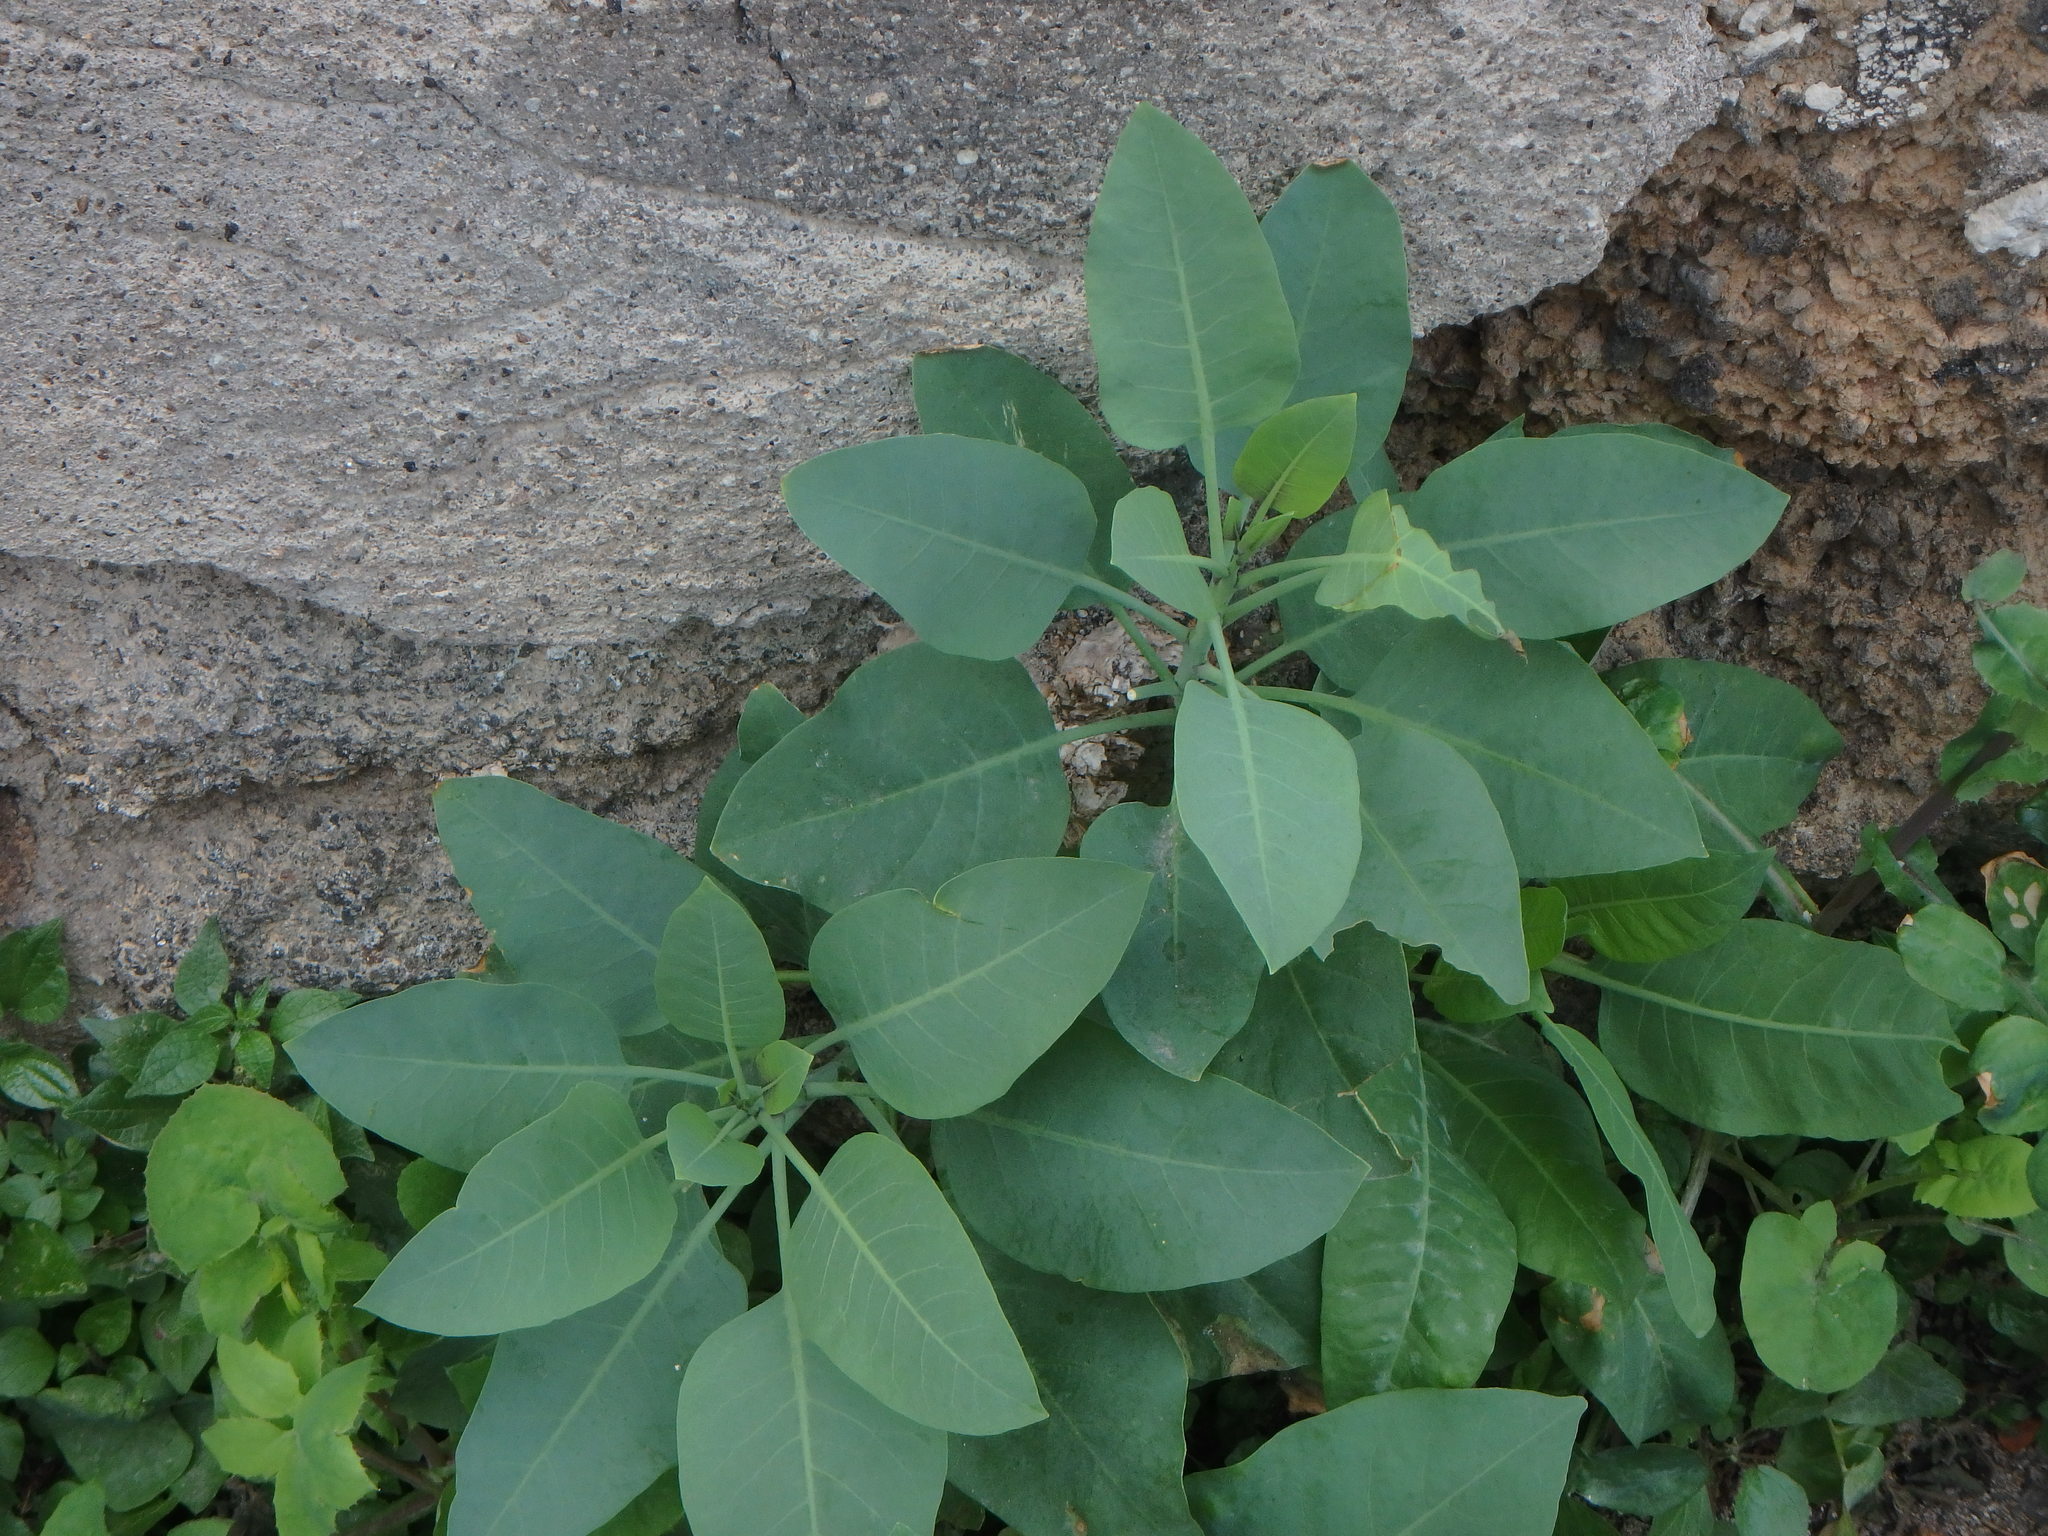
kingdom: Plantae
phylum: Tracheophyta
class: Magnoliopsida
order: Solanales
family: Solanaceae
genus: Nicotiana
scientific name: Nicotiana glauca
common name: Tree tobacco
